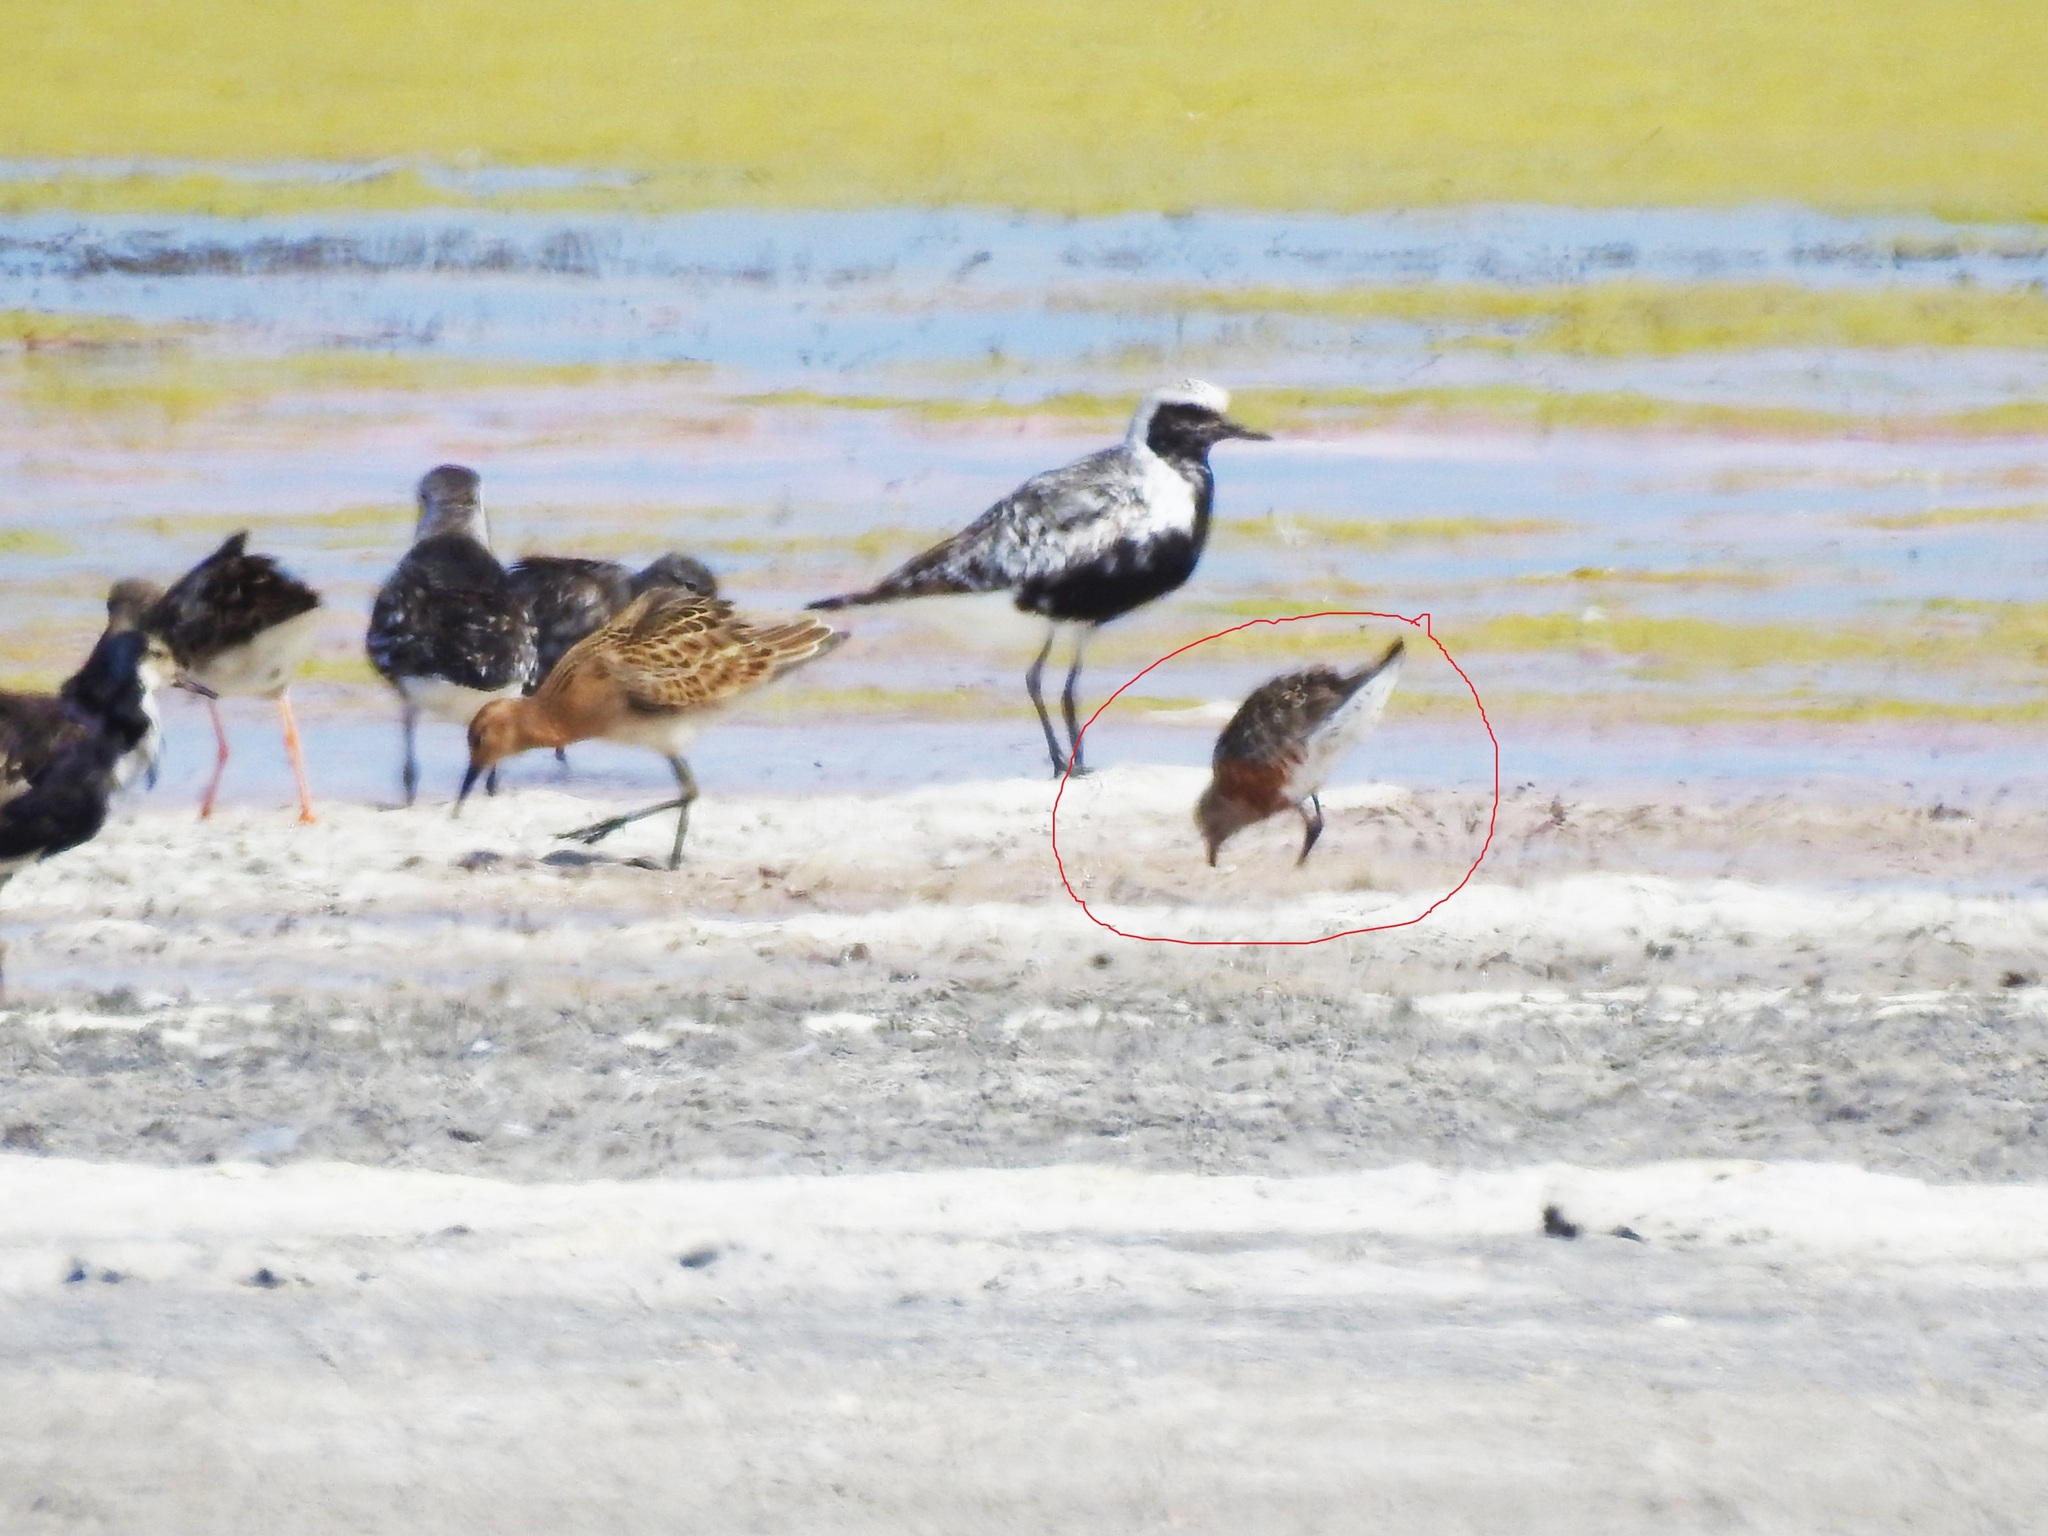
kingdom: Animalia
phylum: Chordata
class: Aves
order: Charadriiformes
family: Scolopacidae
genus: Calidris
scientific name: Calidris ferruginea
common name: Curlew sandpiper
